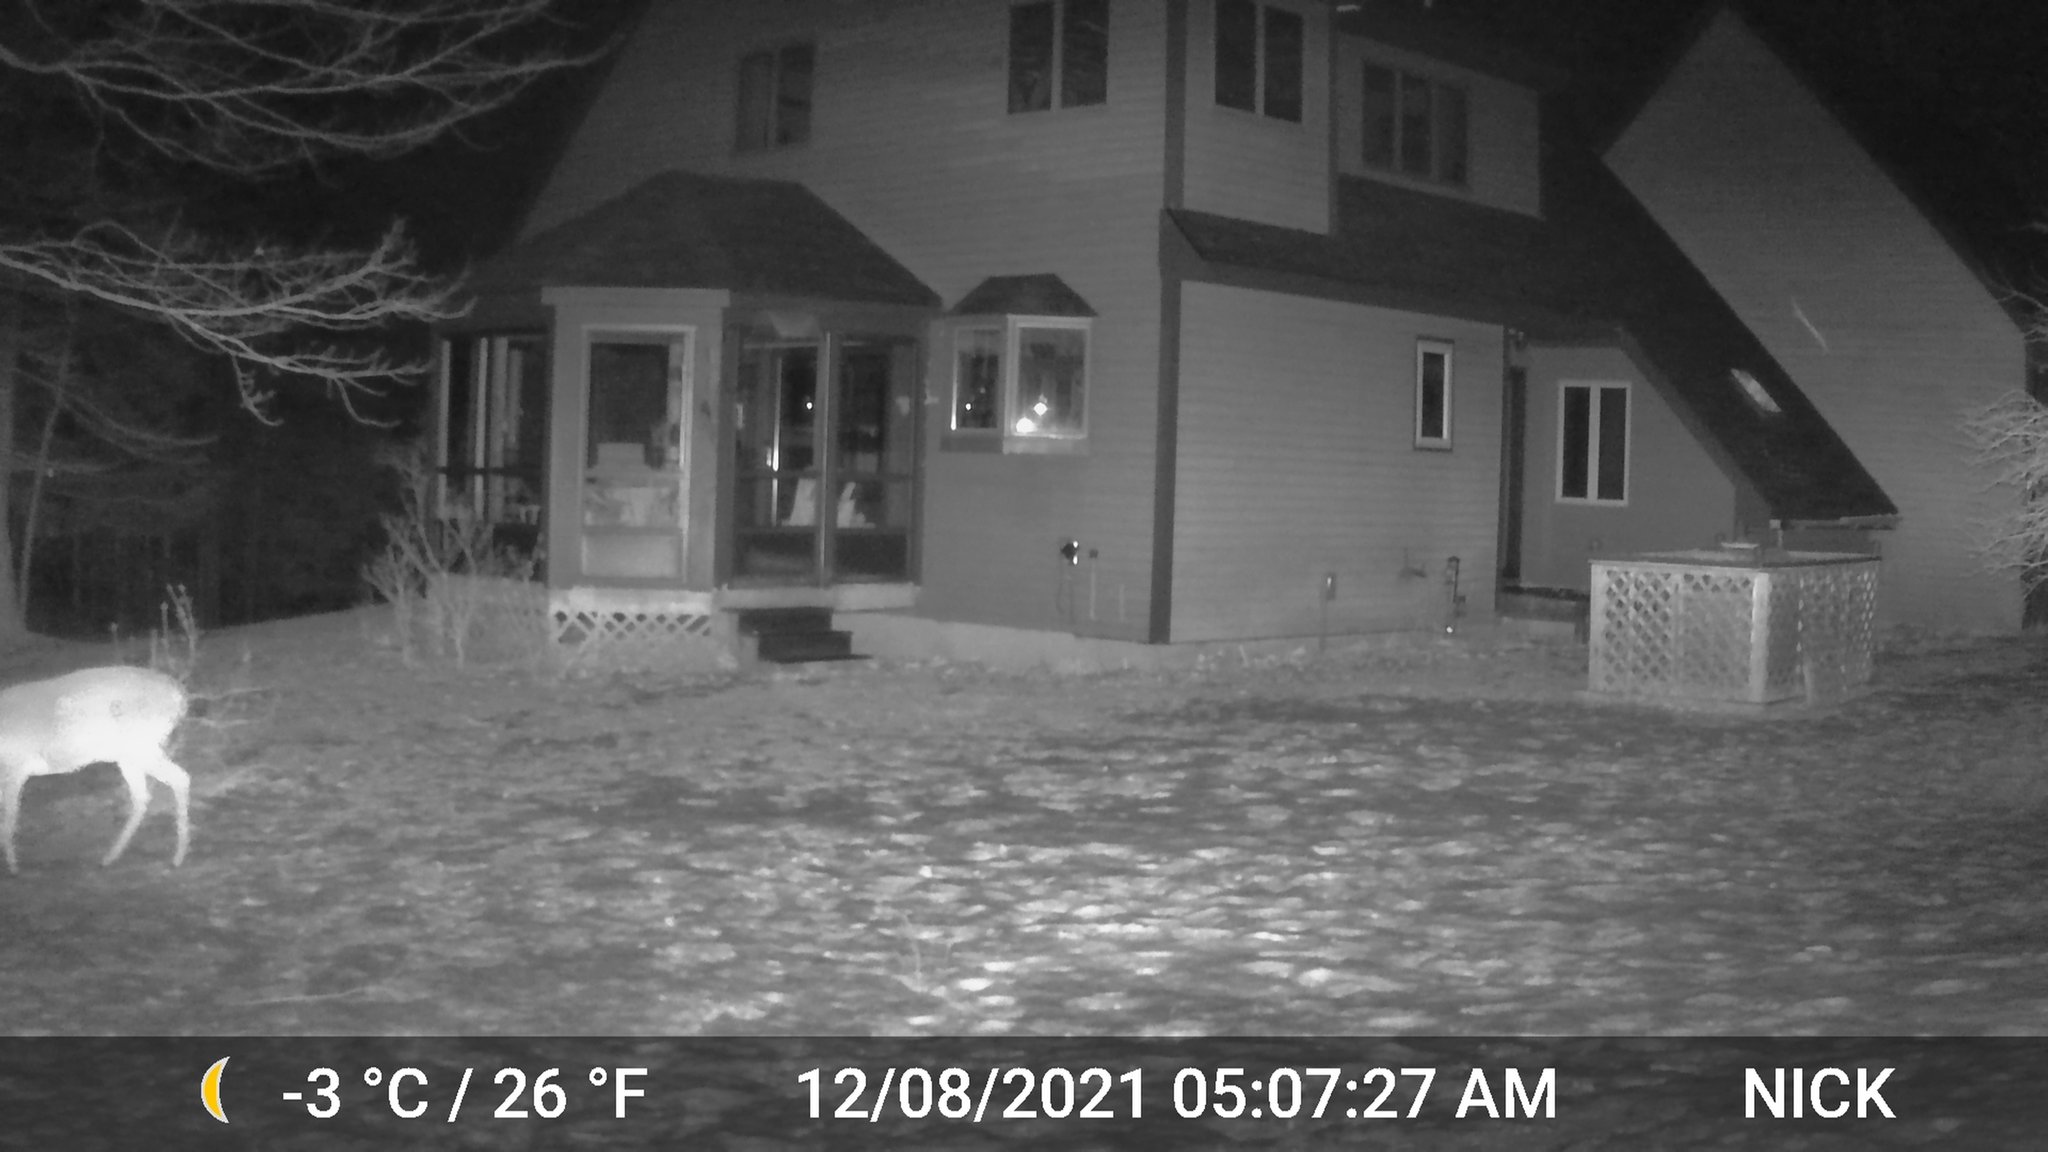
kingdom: Animalia
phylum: Chordata
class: Mammalia
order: Artiodactyla
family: Cervidae
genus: Odocoileus
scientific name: Odocoileus virginianus
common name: White-tailed deer
